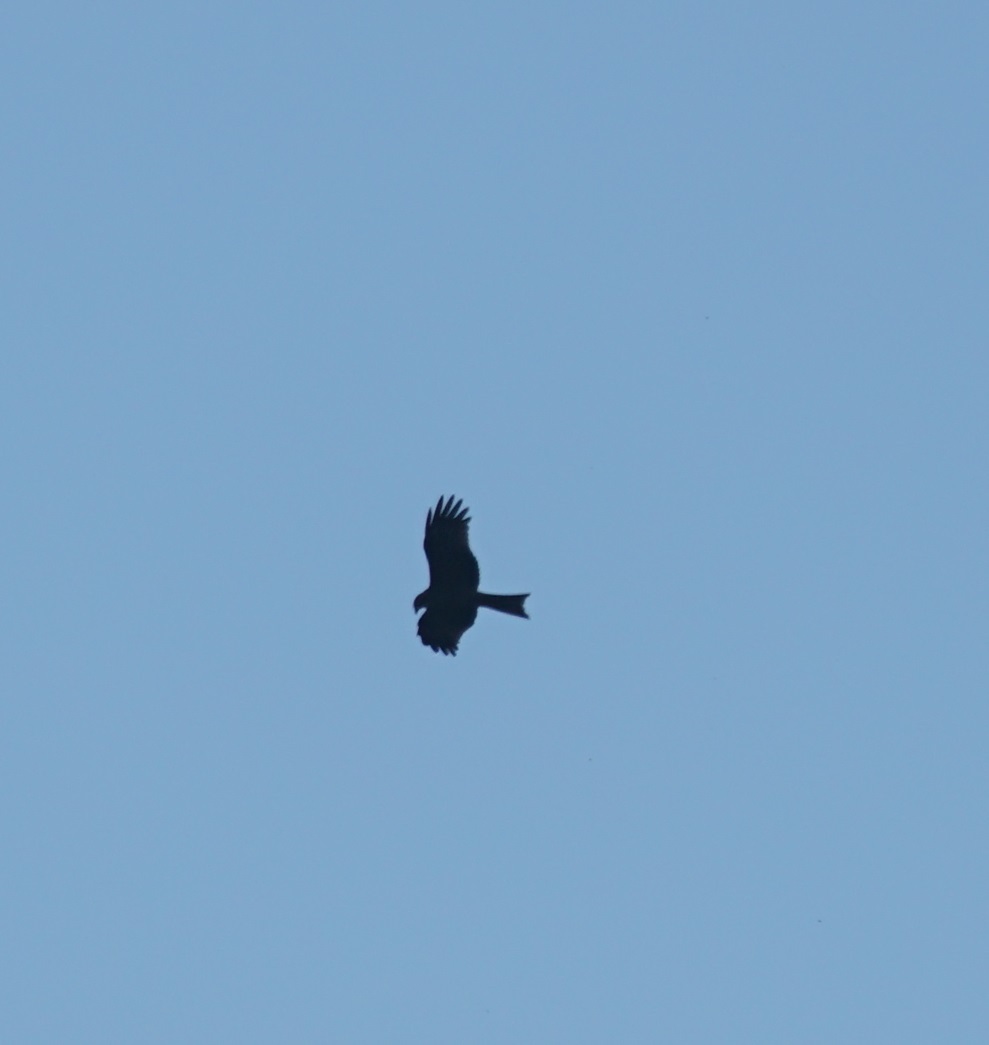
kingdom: Animalia
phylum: Chordata
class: Aves
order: Accipitriformes
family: Accipitridae
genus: Milvus
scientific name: Milvus migrans
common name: Black kite
